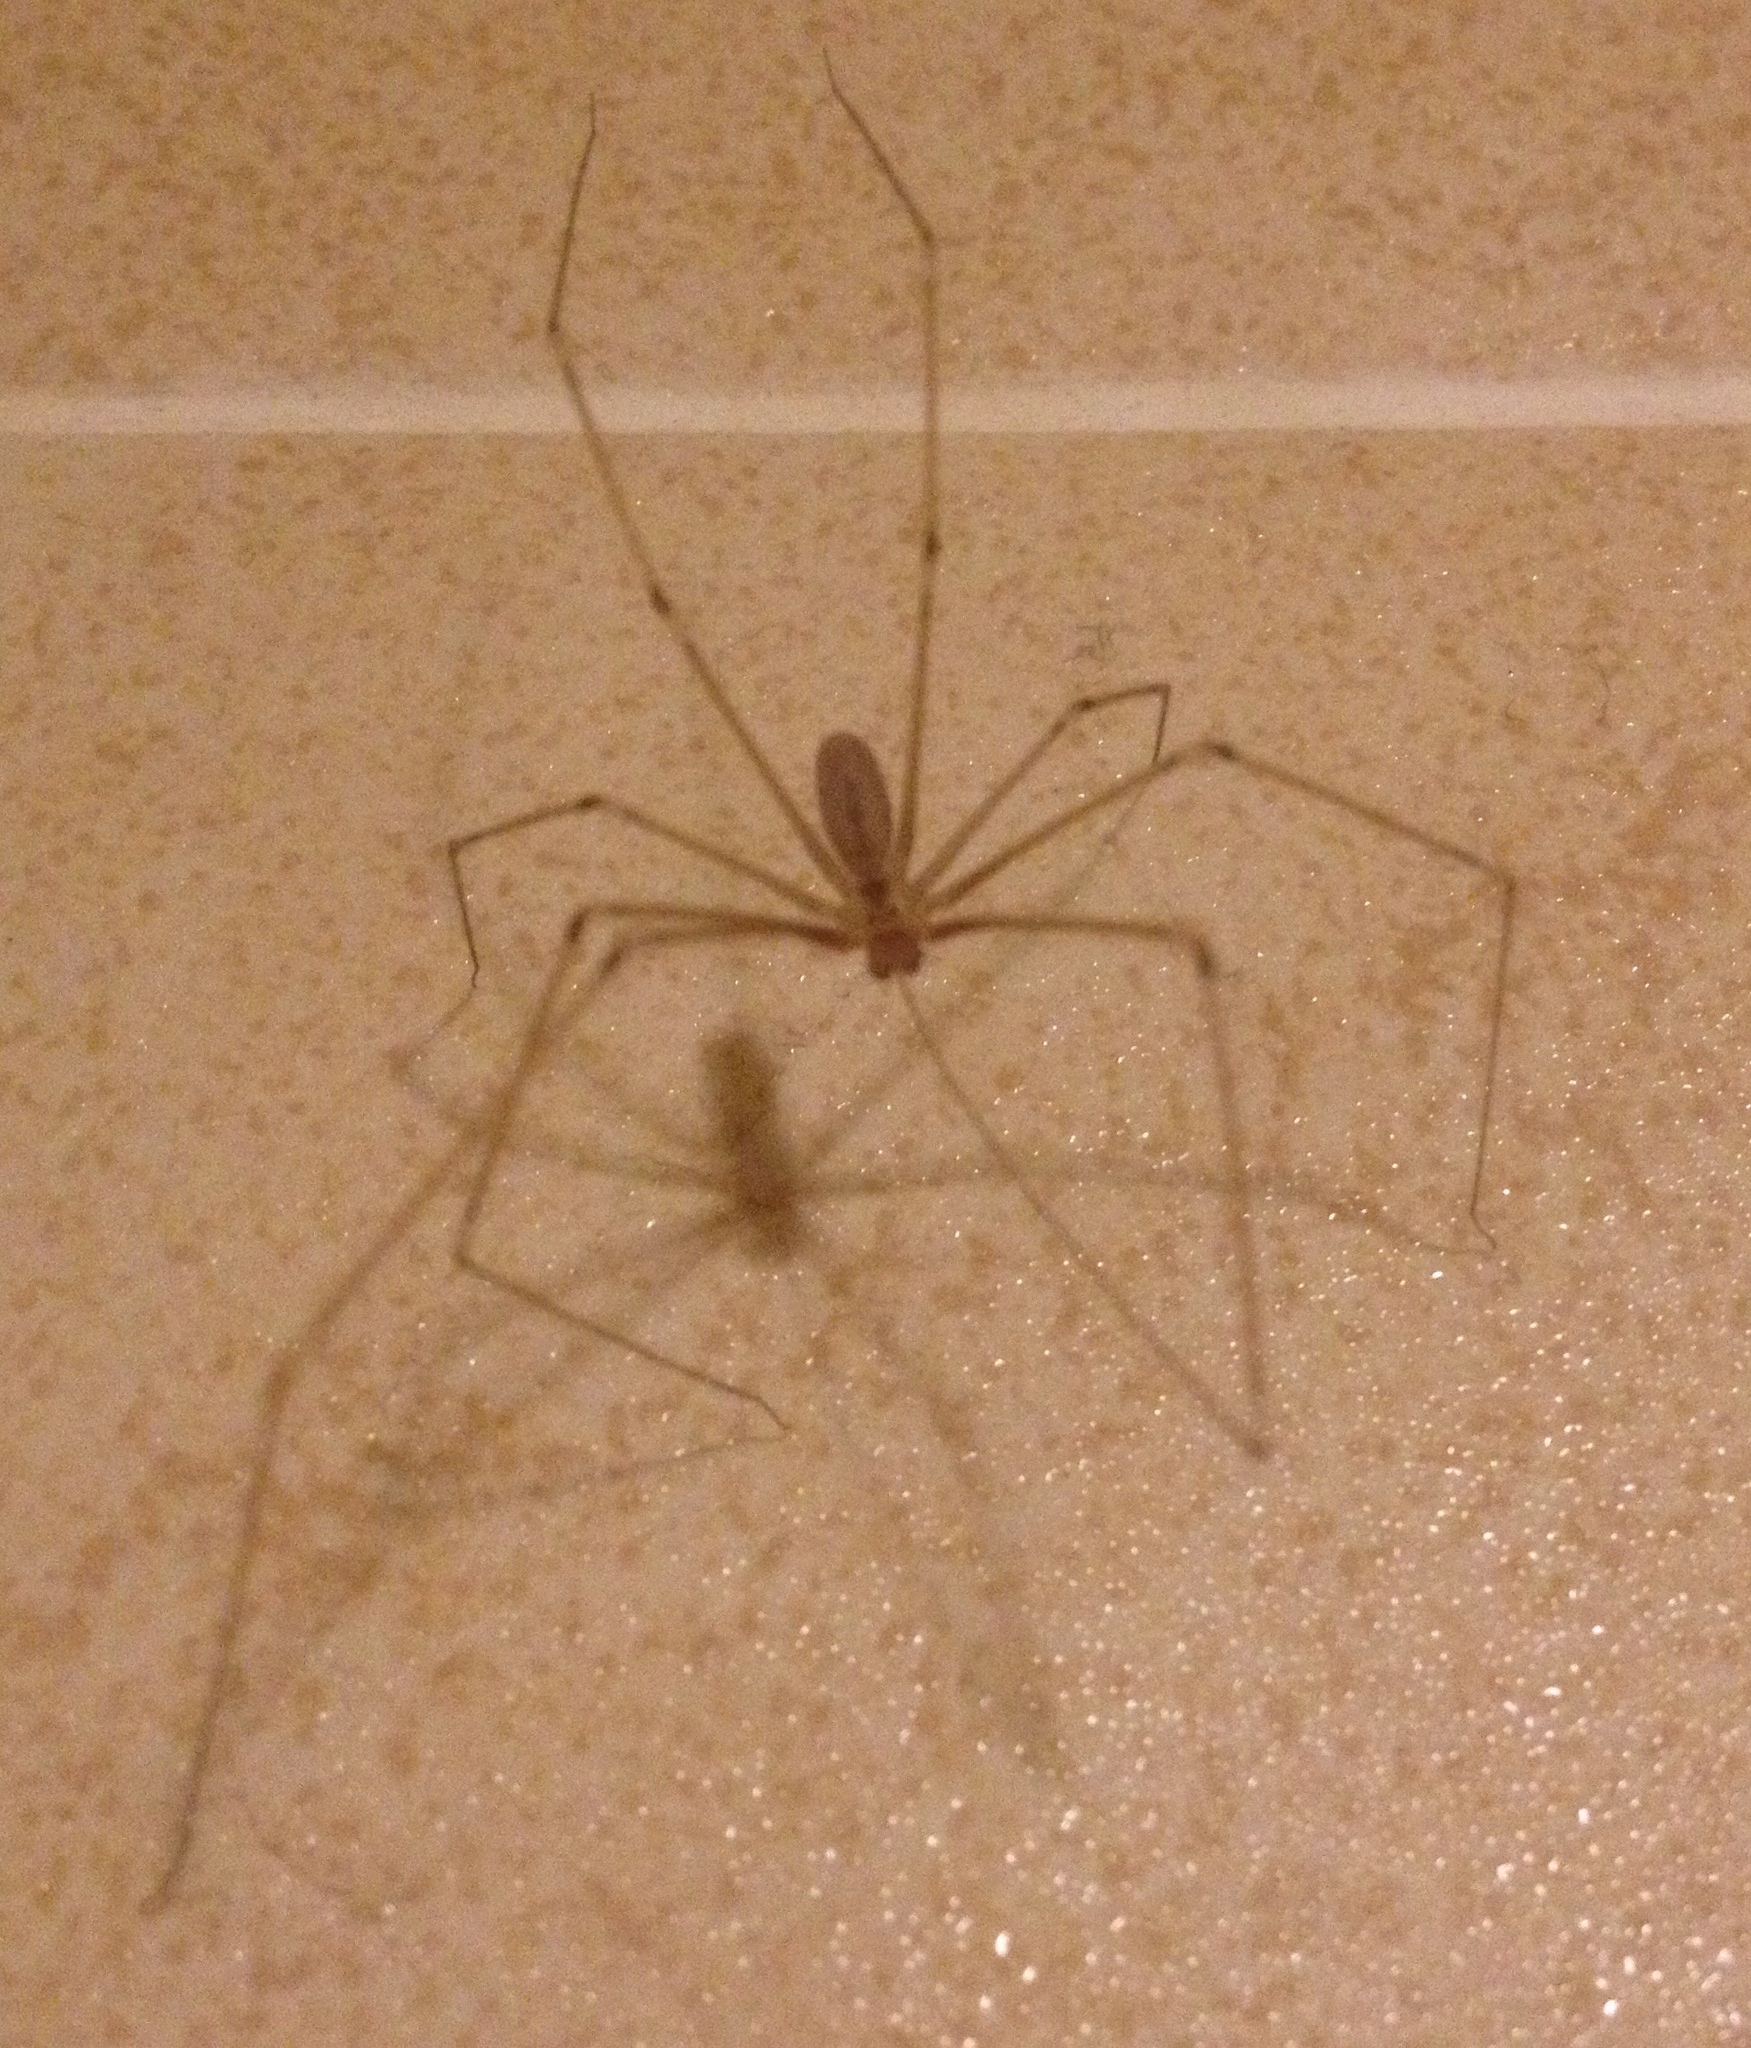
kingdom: Animalia
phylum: Arthropoda
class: Arachnida
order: Araneae
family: Pholcidae
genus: Pholcus
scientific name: Pholcus phalangioides
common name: Longbodied cellar spider
